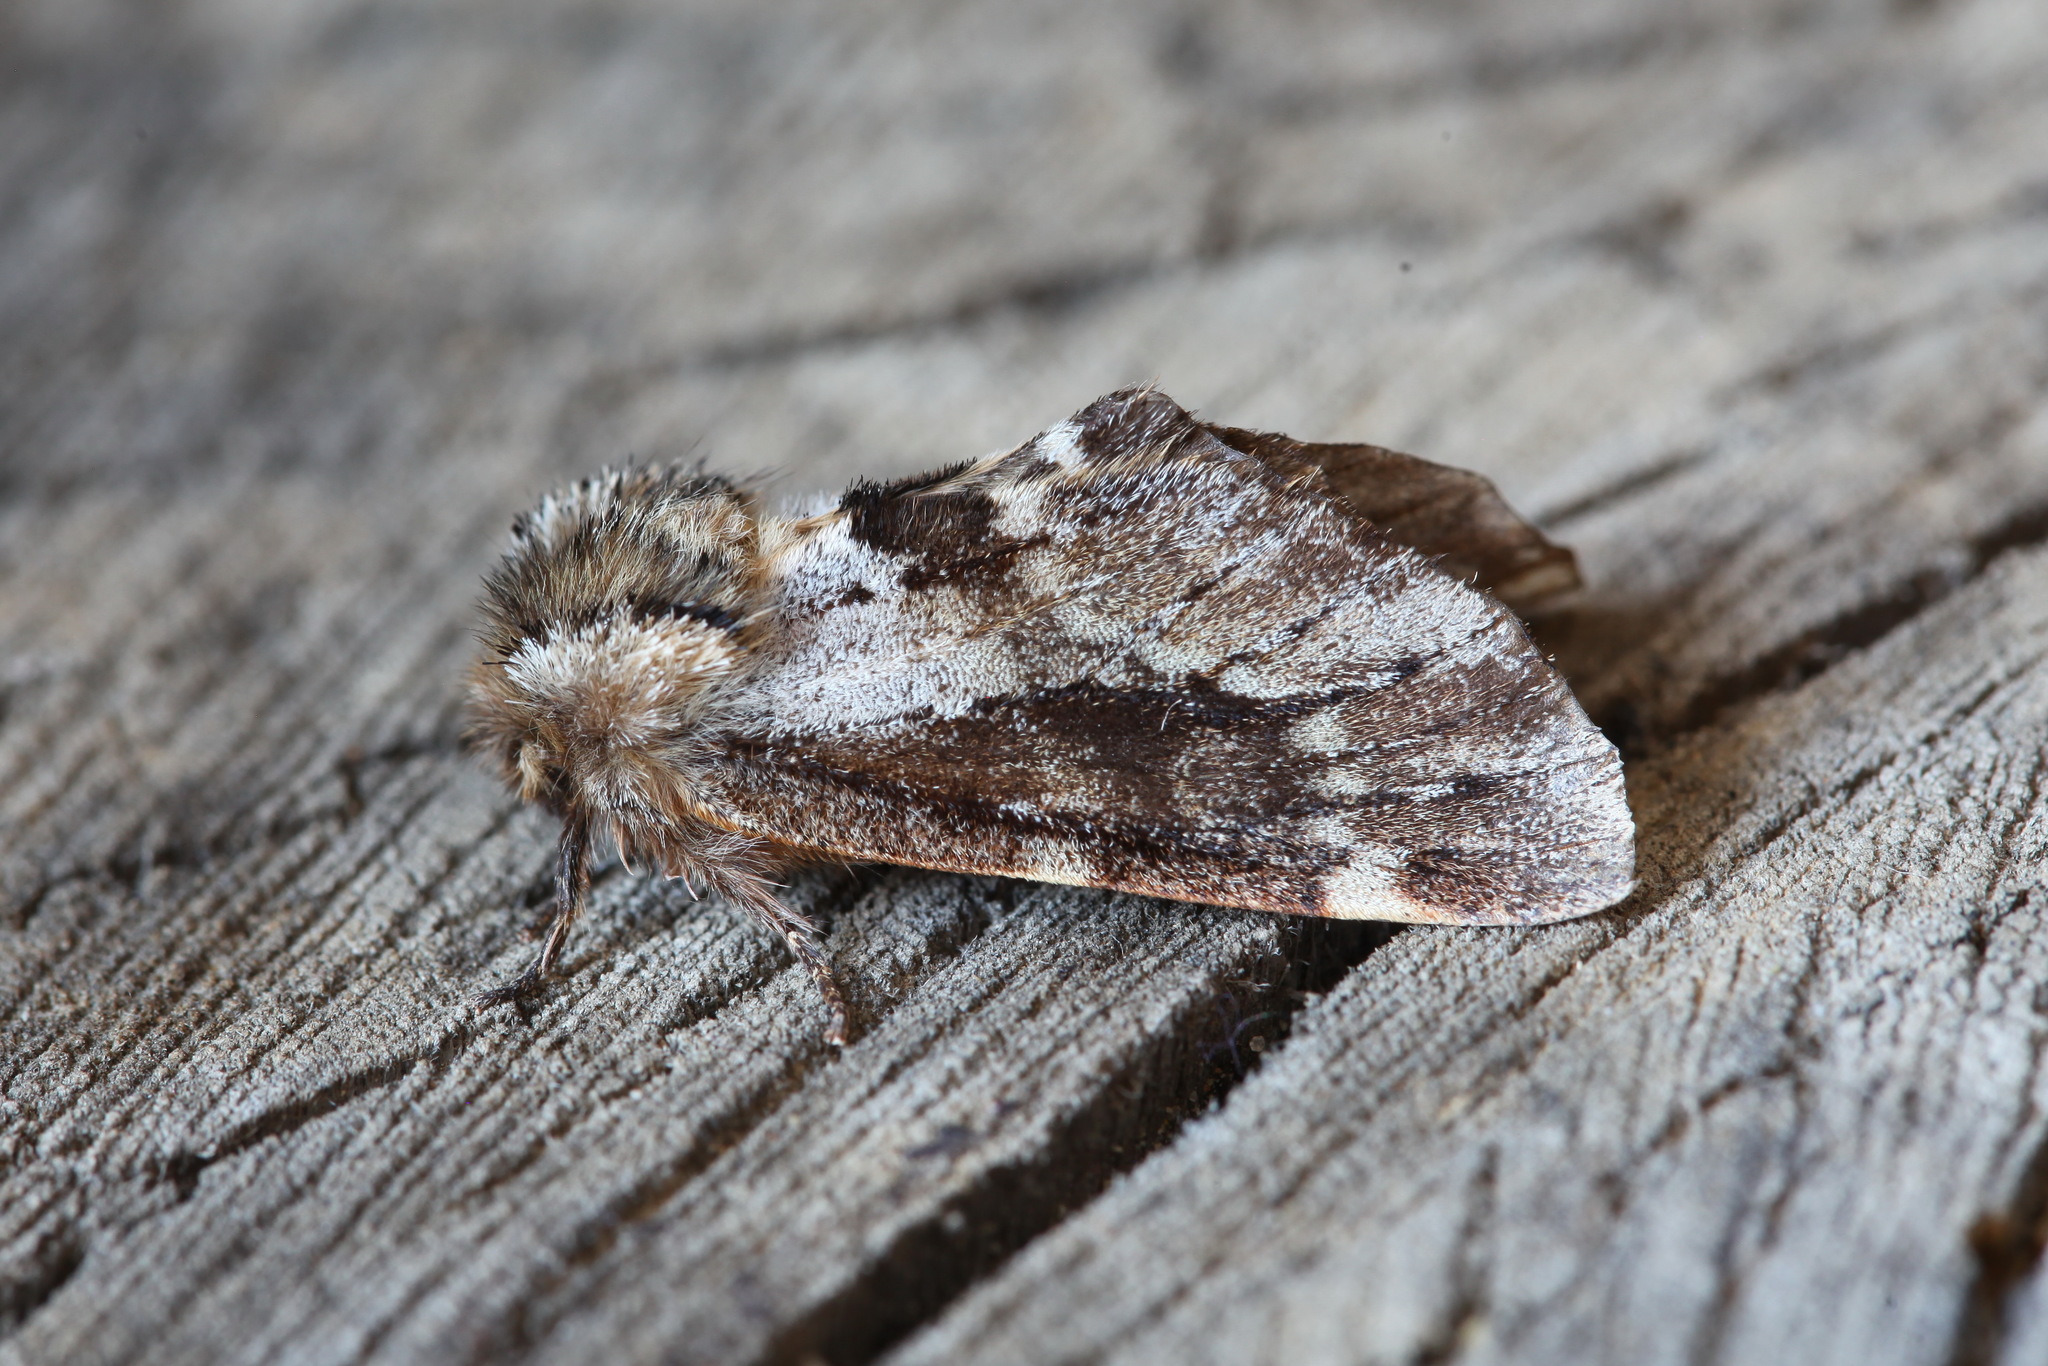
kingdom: Animalia
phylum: Arthropoda
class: Insecta
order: Lepidoptera
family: Notodontidae
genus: Odontosia
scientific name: Odontosia sieversii
